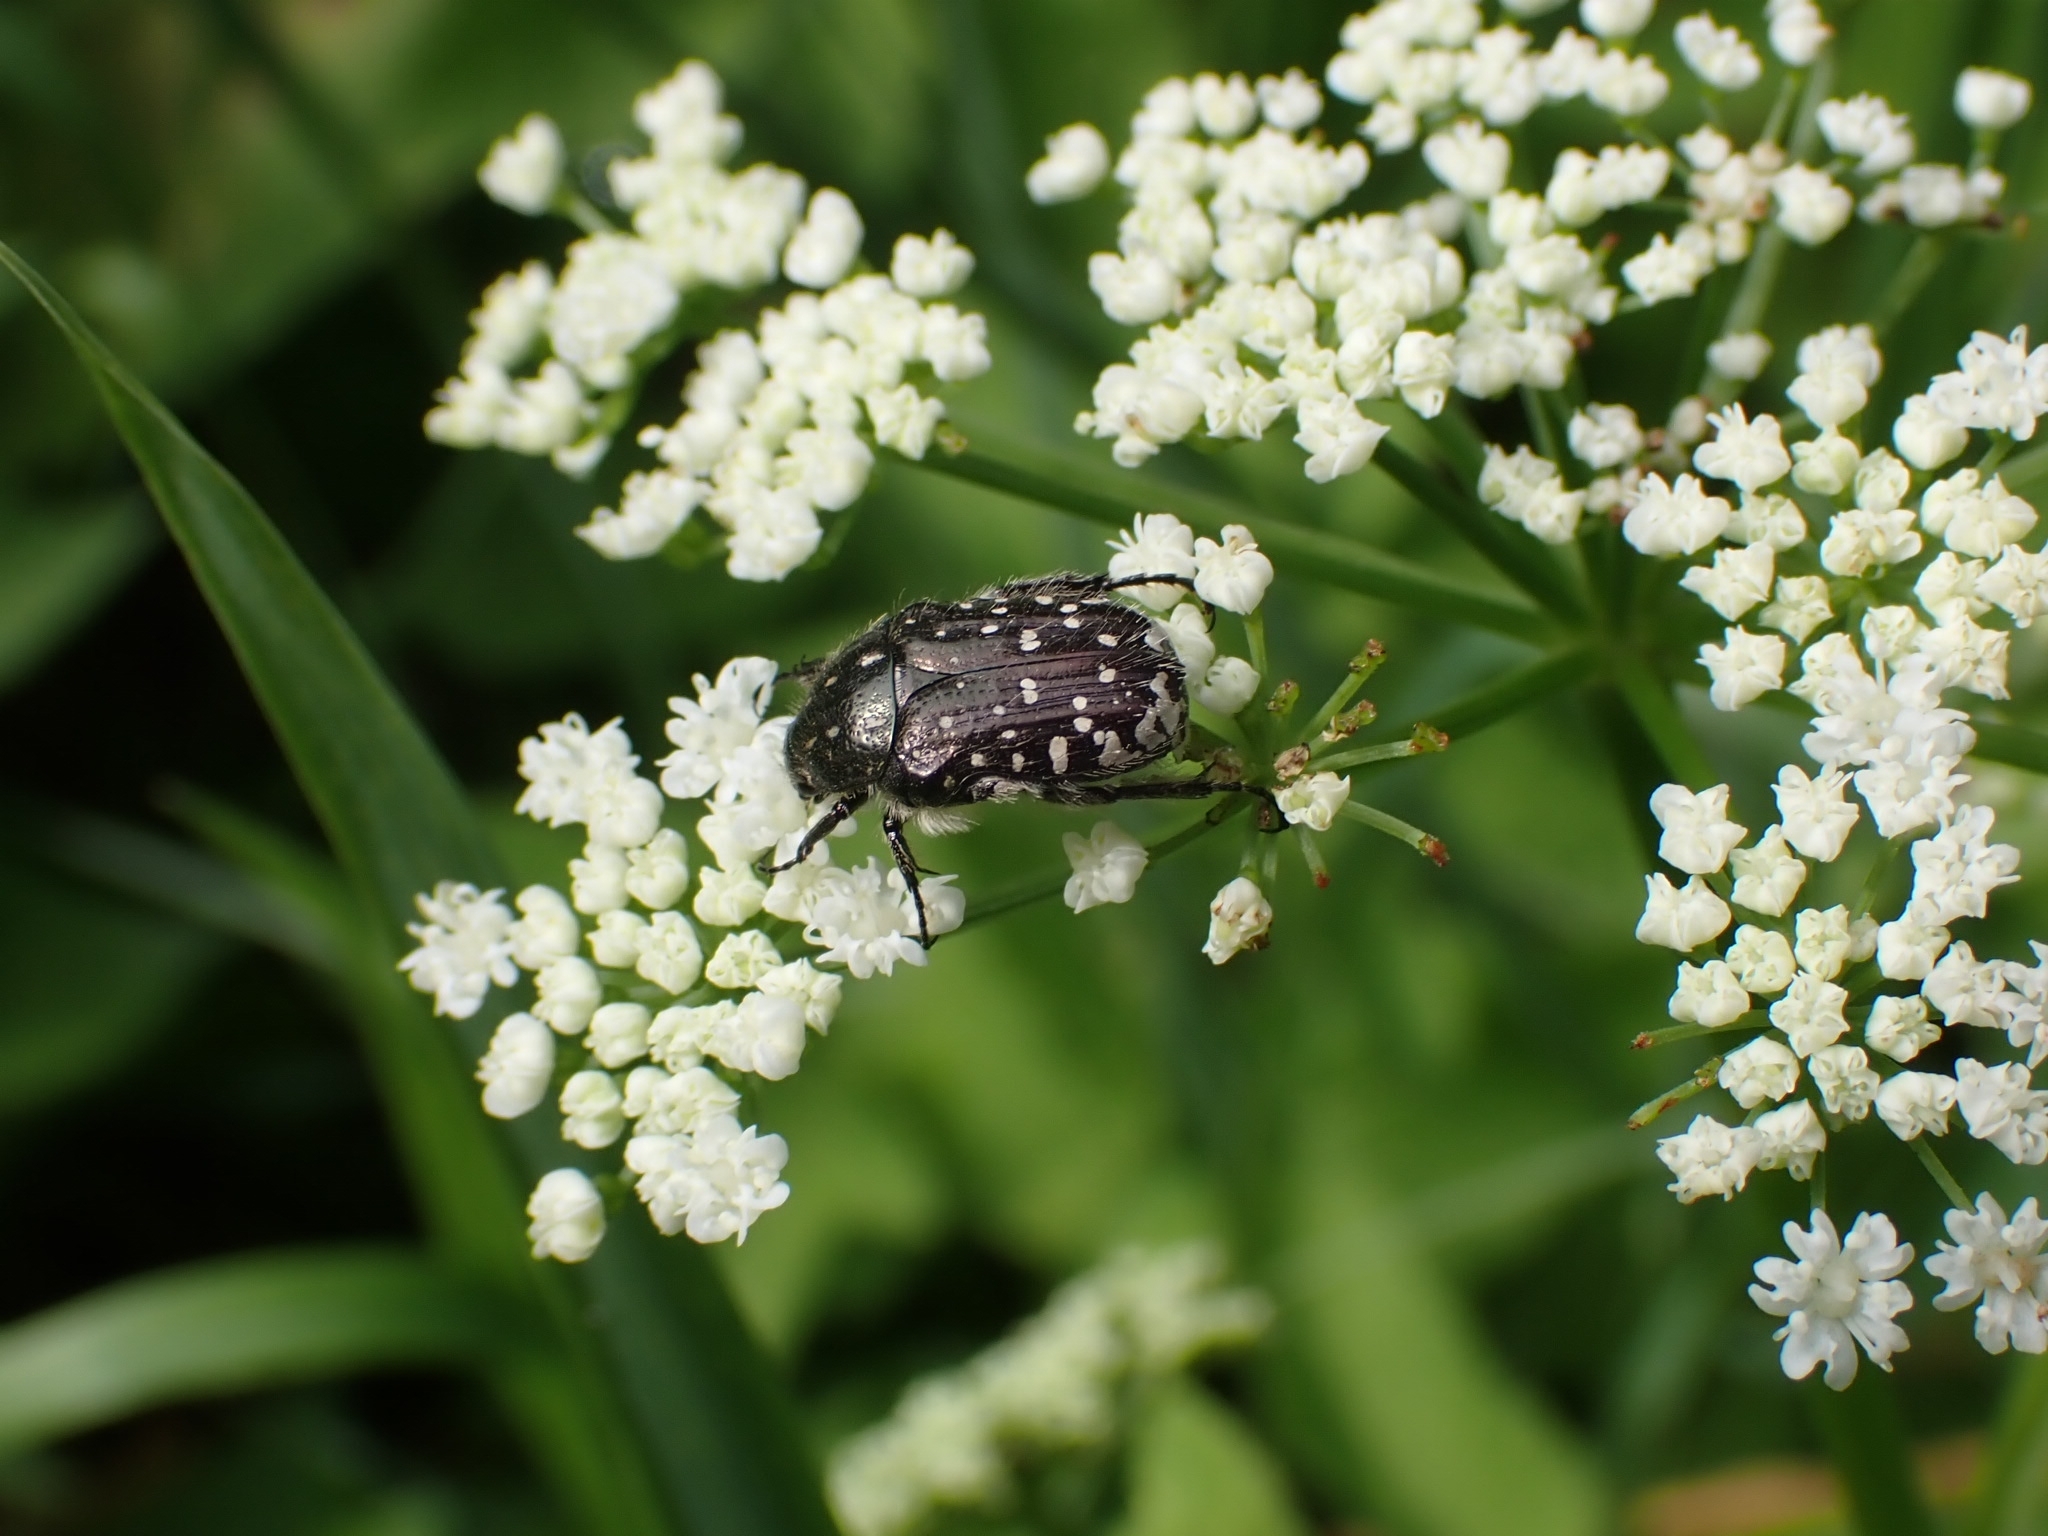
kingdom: Animalia
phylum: Arthropoda
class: Insecta
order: Coleoptera
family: Scarabaeidae
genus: Oxythyrea
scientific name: Oxythyrea funesta
